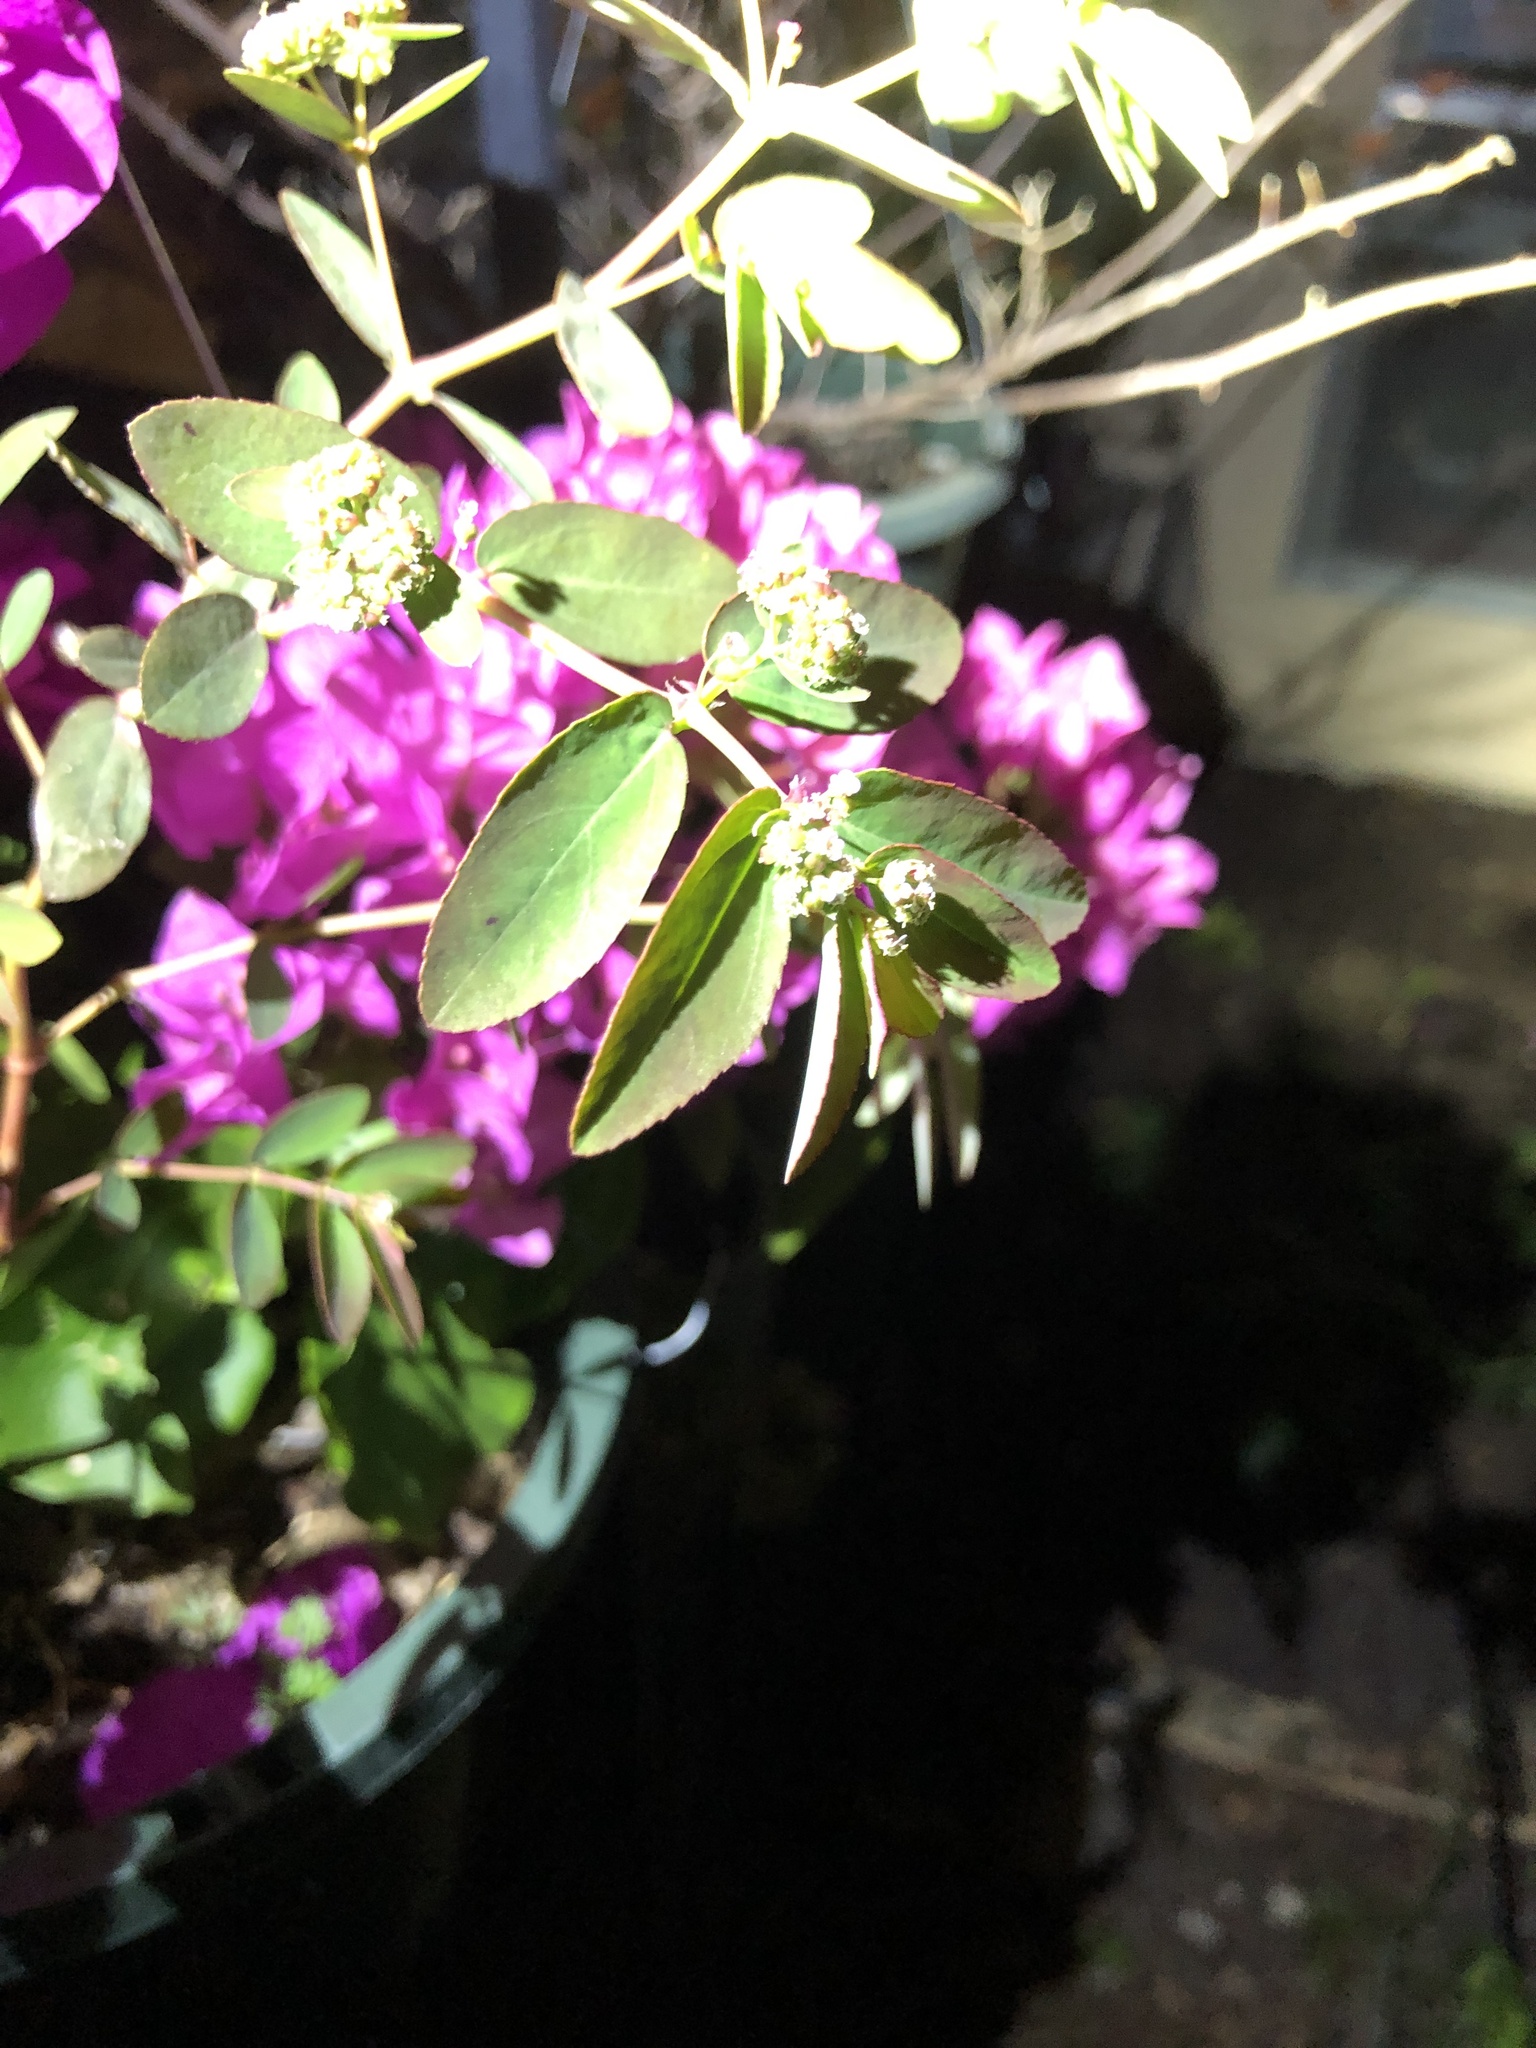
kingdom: Plantae
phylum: Tracheophyta
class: Magnoliopsida
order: Malpighiales
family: Euphorbiaceae
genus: Euphorbia
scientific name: Euphorbia hypericifolia
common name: Graceful sandmat
